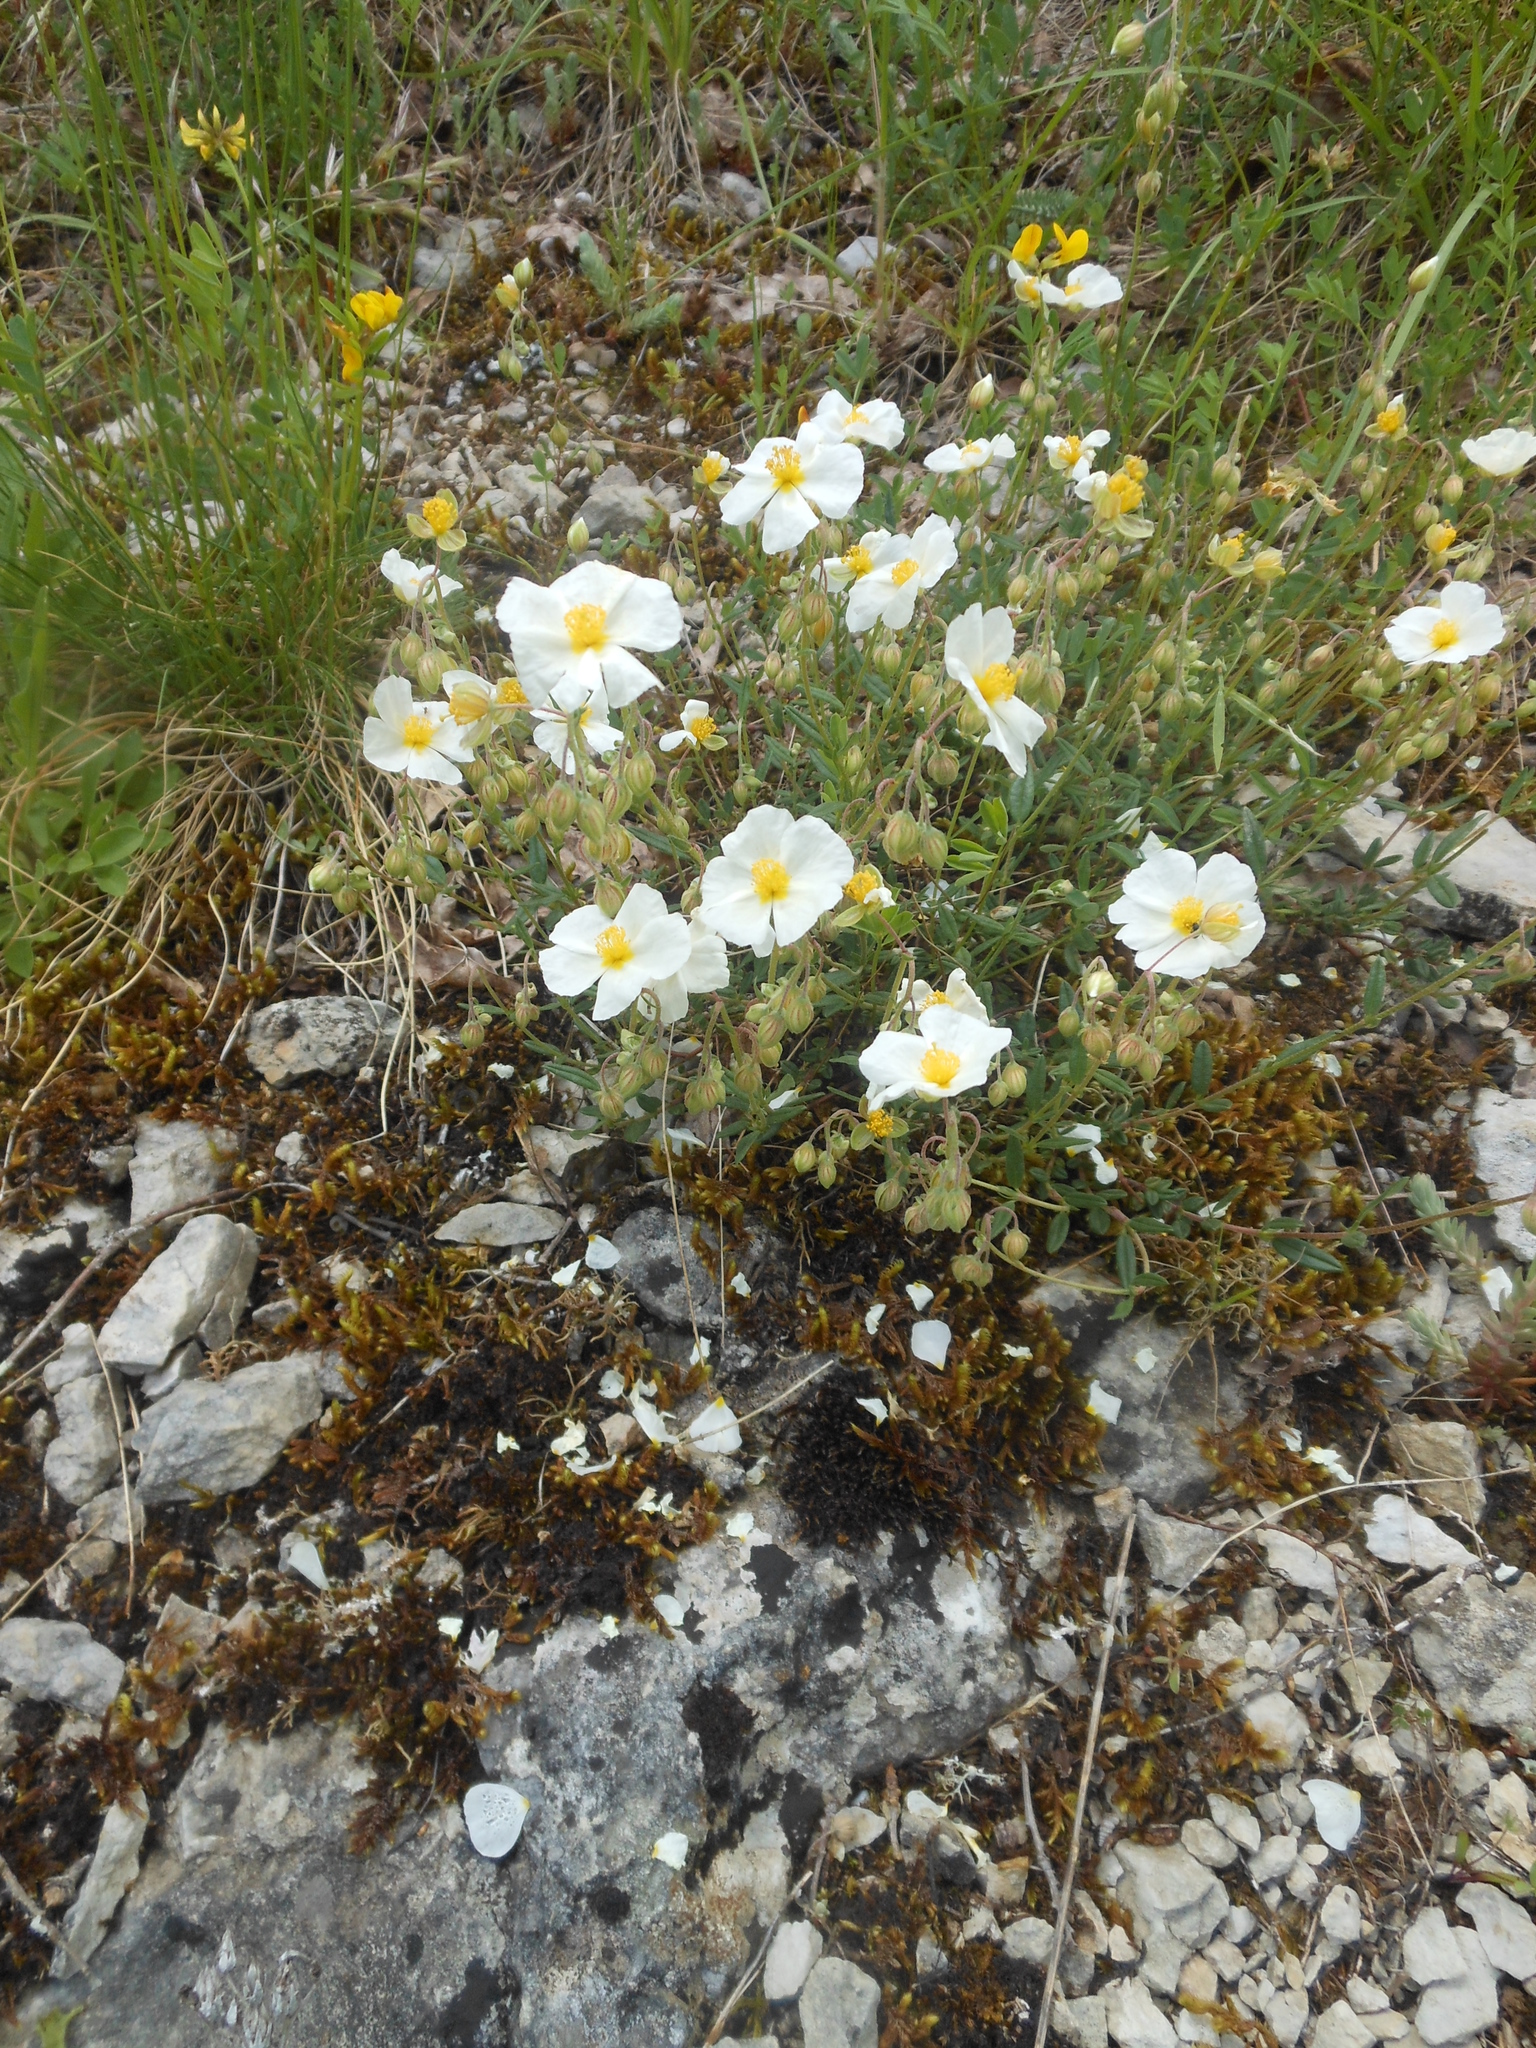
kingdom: Plantae
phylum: Tracheophyta
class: Magnoliopsida
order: Malvales
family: Cistaceae
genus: Helianthemum
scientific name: Helianthemum apenninum
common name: White rock-rose
